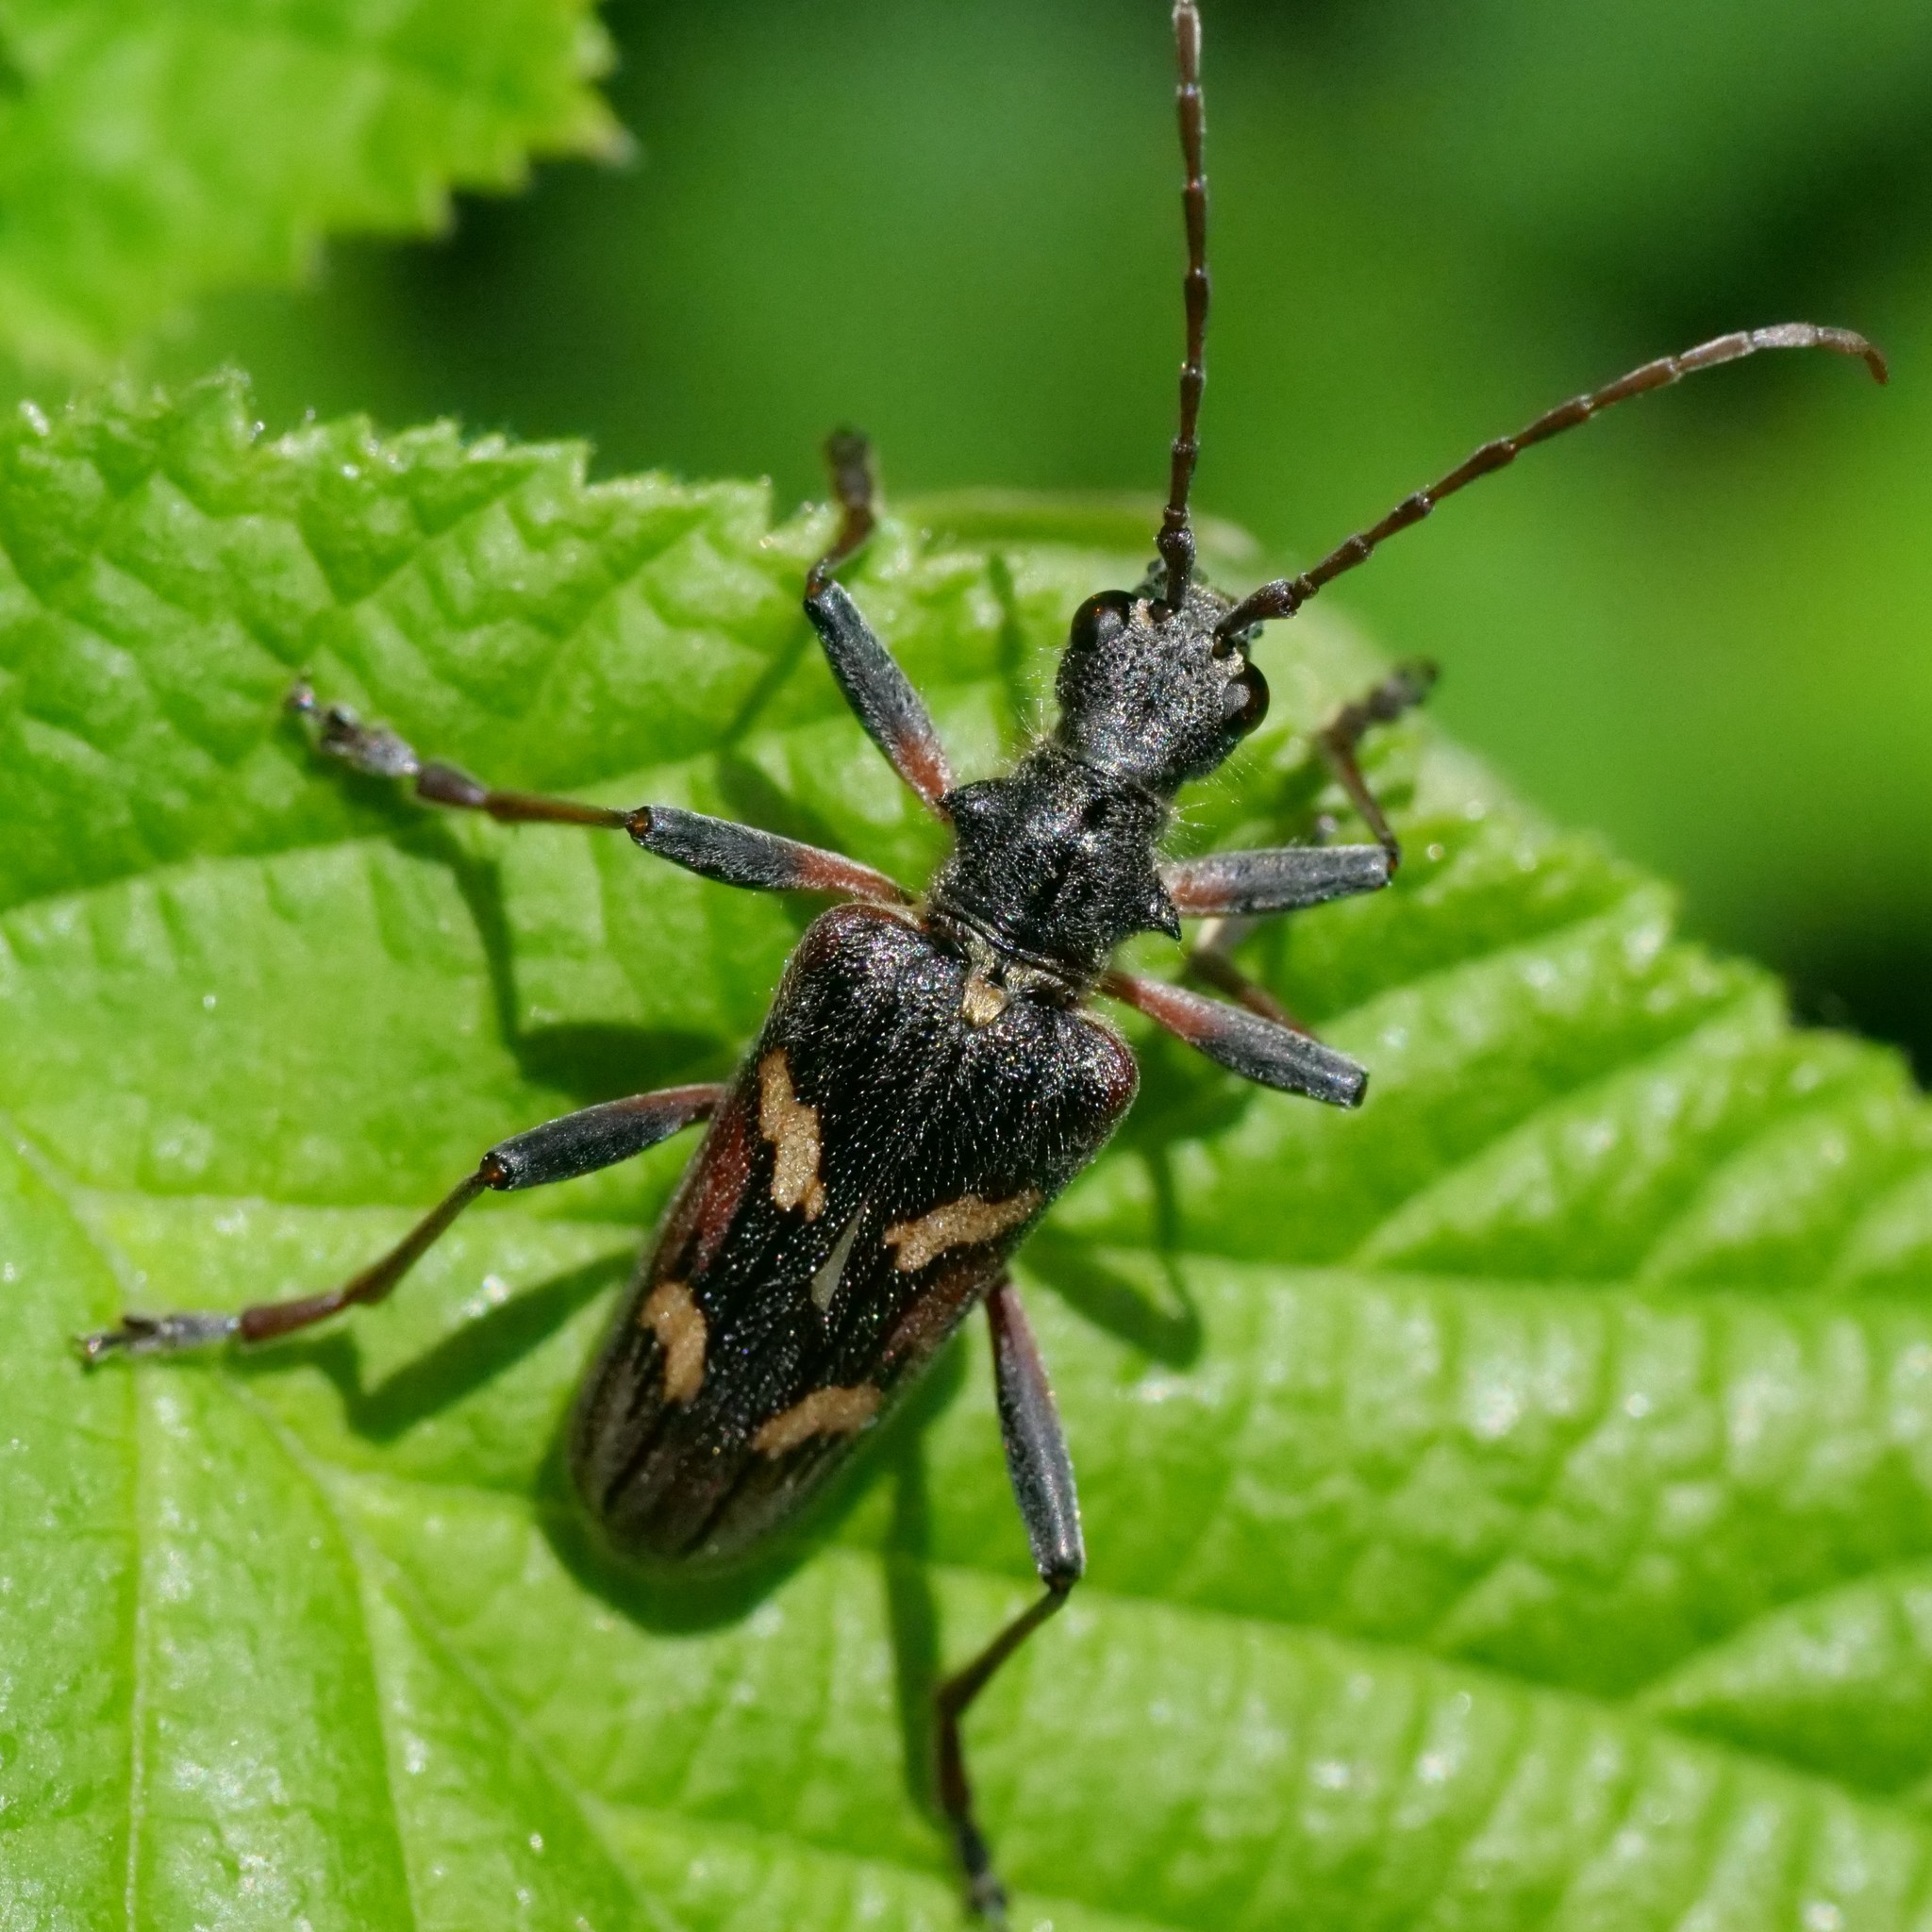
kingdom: Animalia
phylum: Arthropoda
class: Insecta
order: Coleoptera
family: Cerambycidae
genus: Rhagium
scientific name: Rhagium bifasciatum
